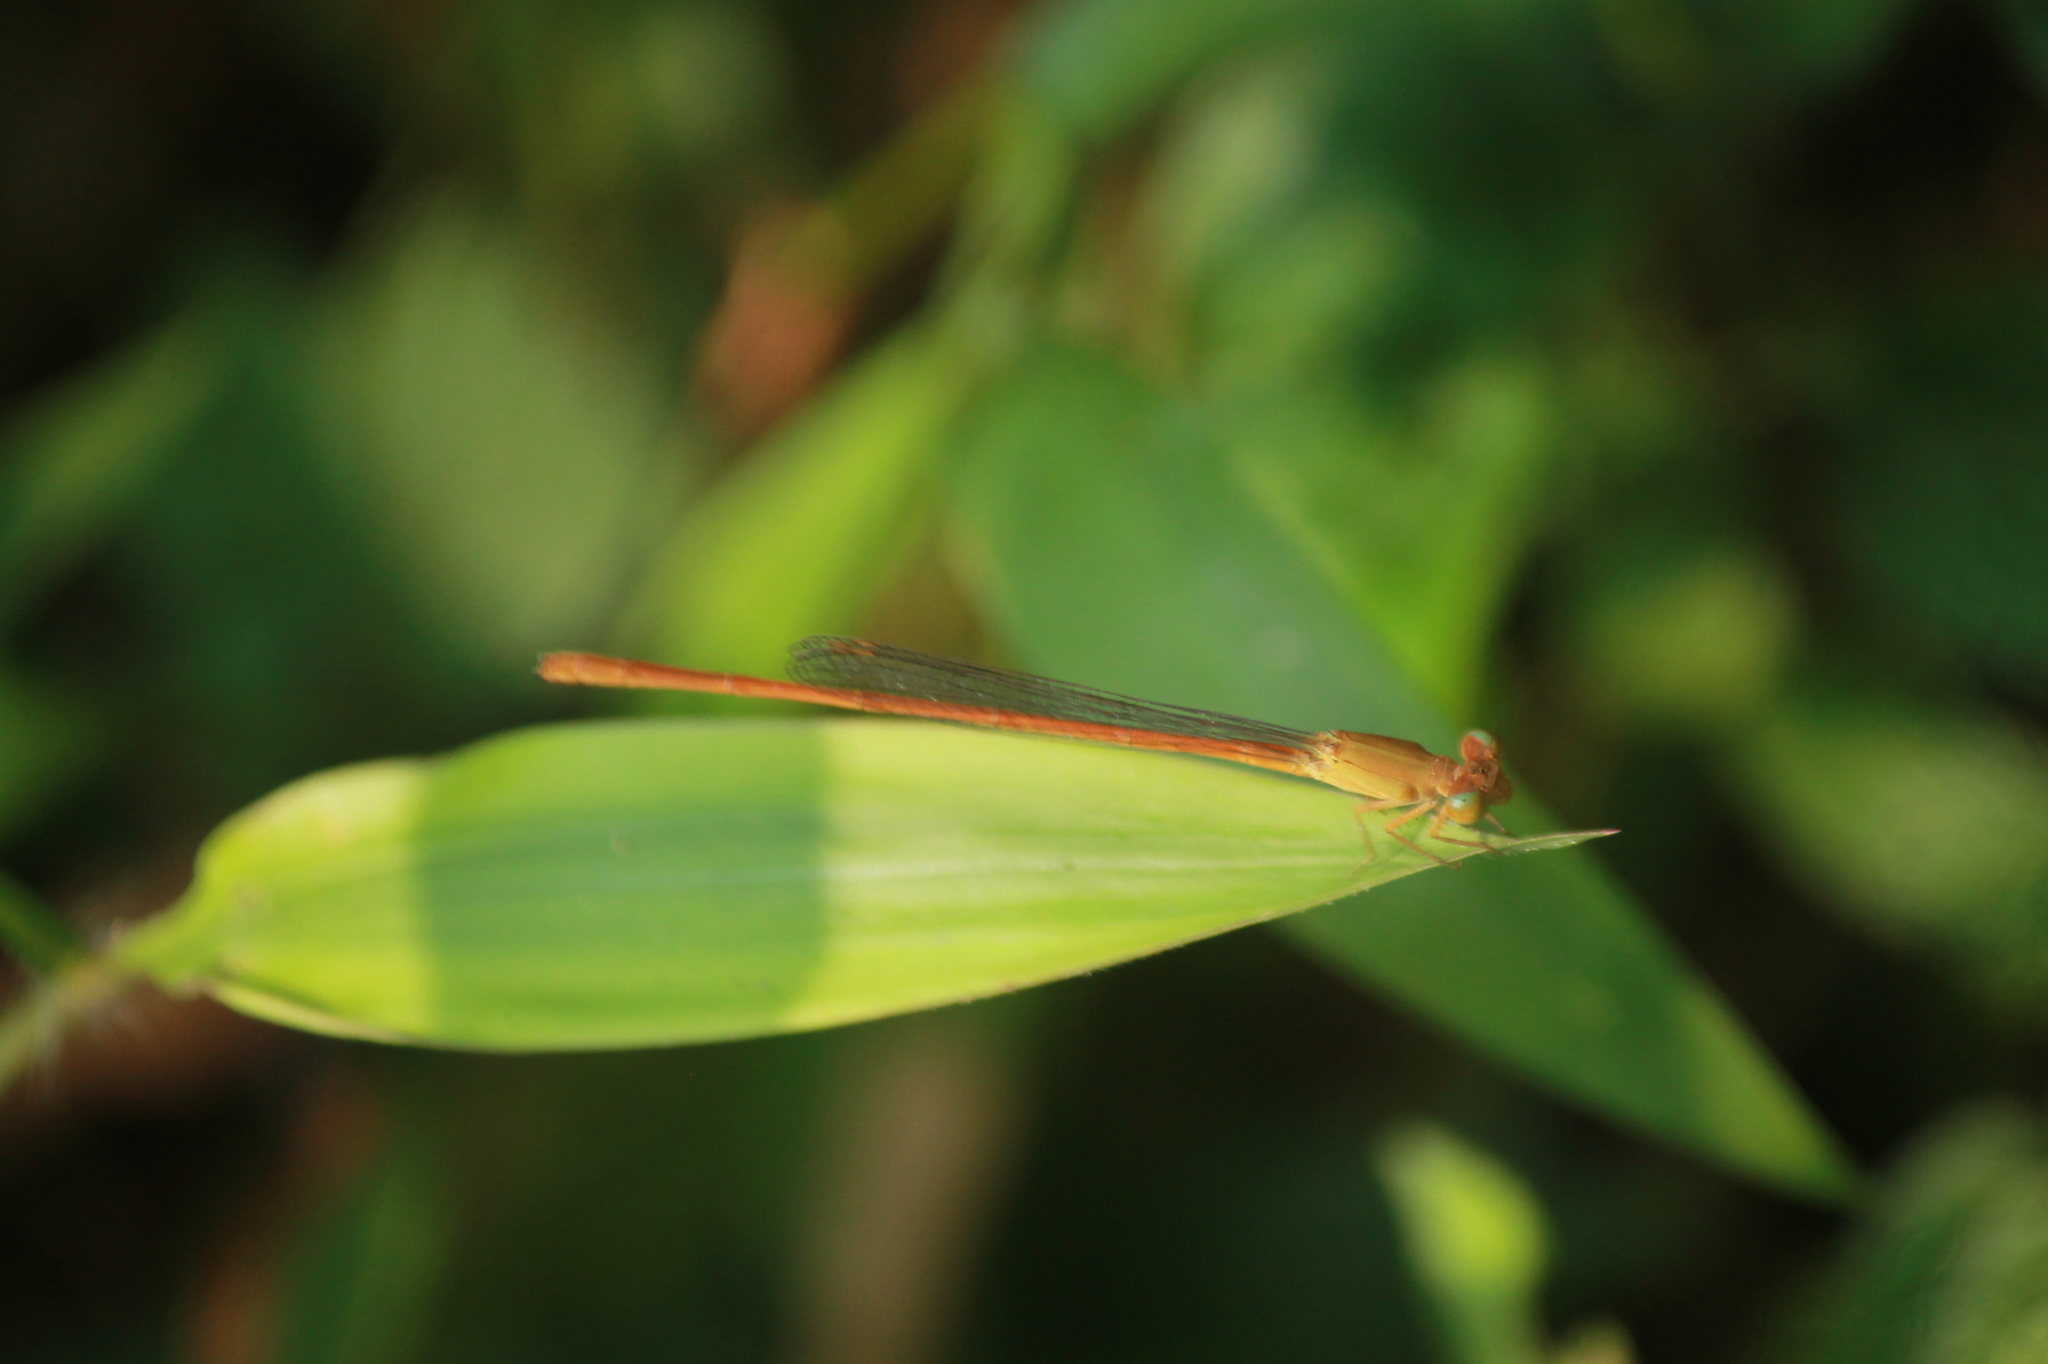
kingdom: Animalia
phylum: Arthropoda
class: Insecta
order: Odonata
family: Coenagrionidae
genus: Ceriagrion
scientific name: Ceriagrion olivaceum
